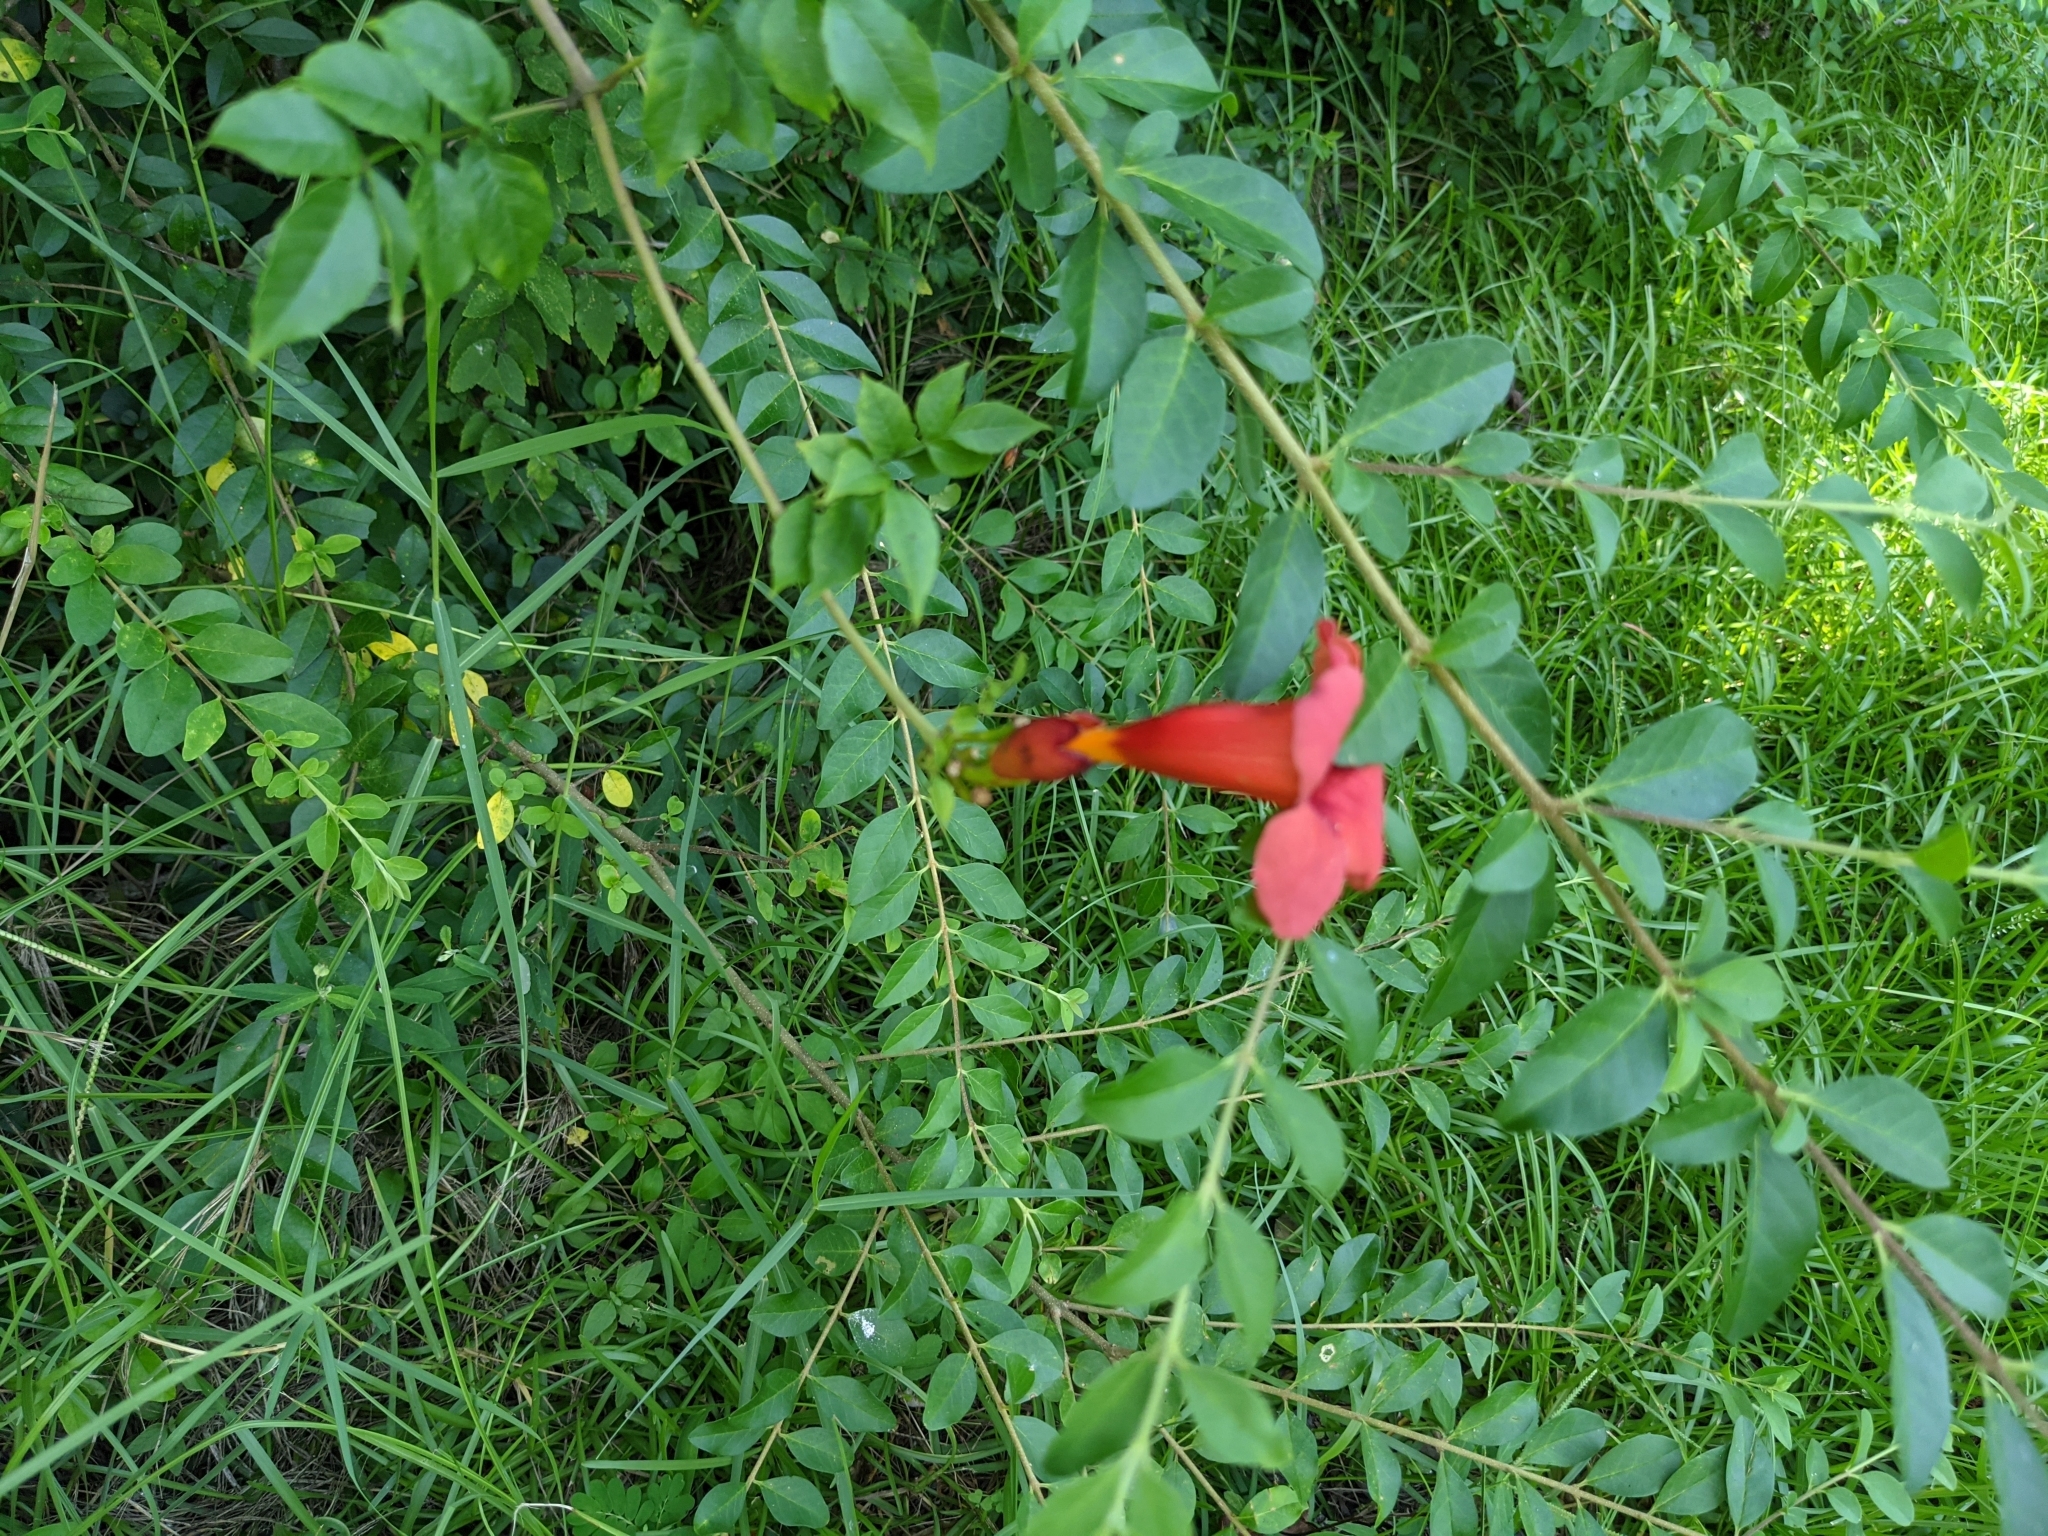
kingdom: Plantae
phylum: Tracheophyta
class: Magnoliopsida
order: Lamiales
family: Bignoniaceae
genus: Campsis
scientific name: Campsis radicans
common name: Trumpet-creeper
